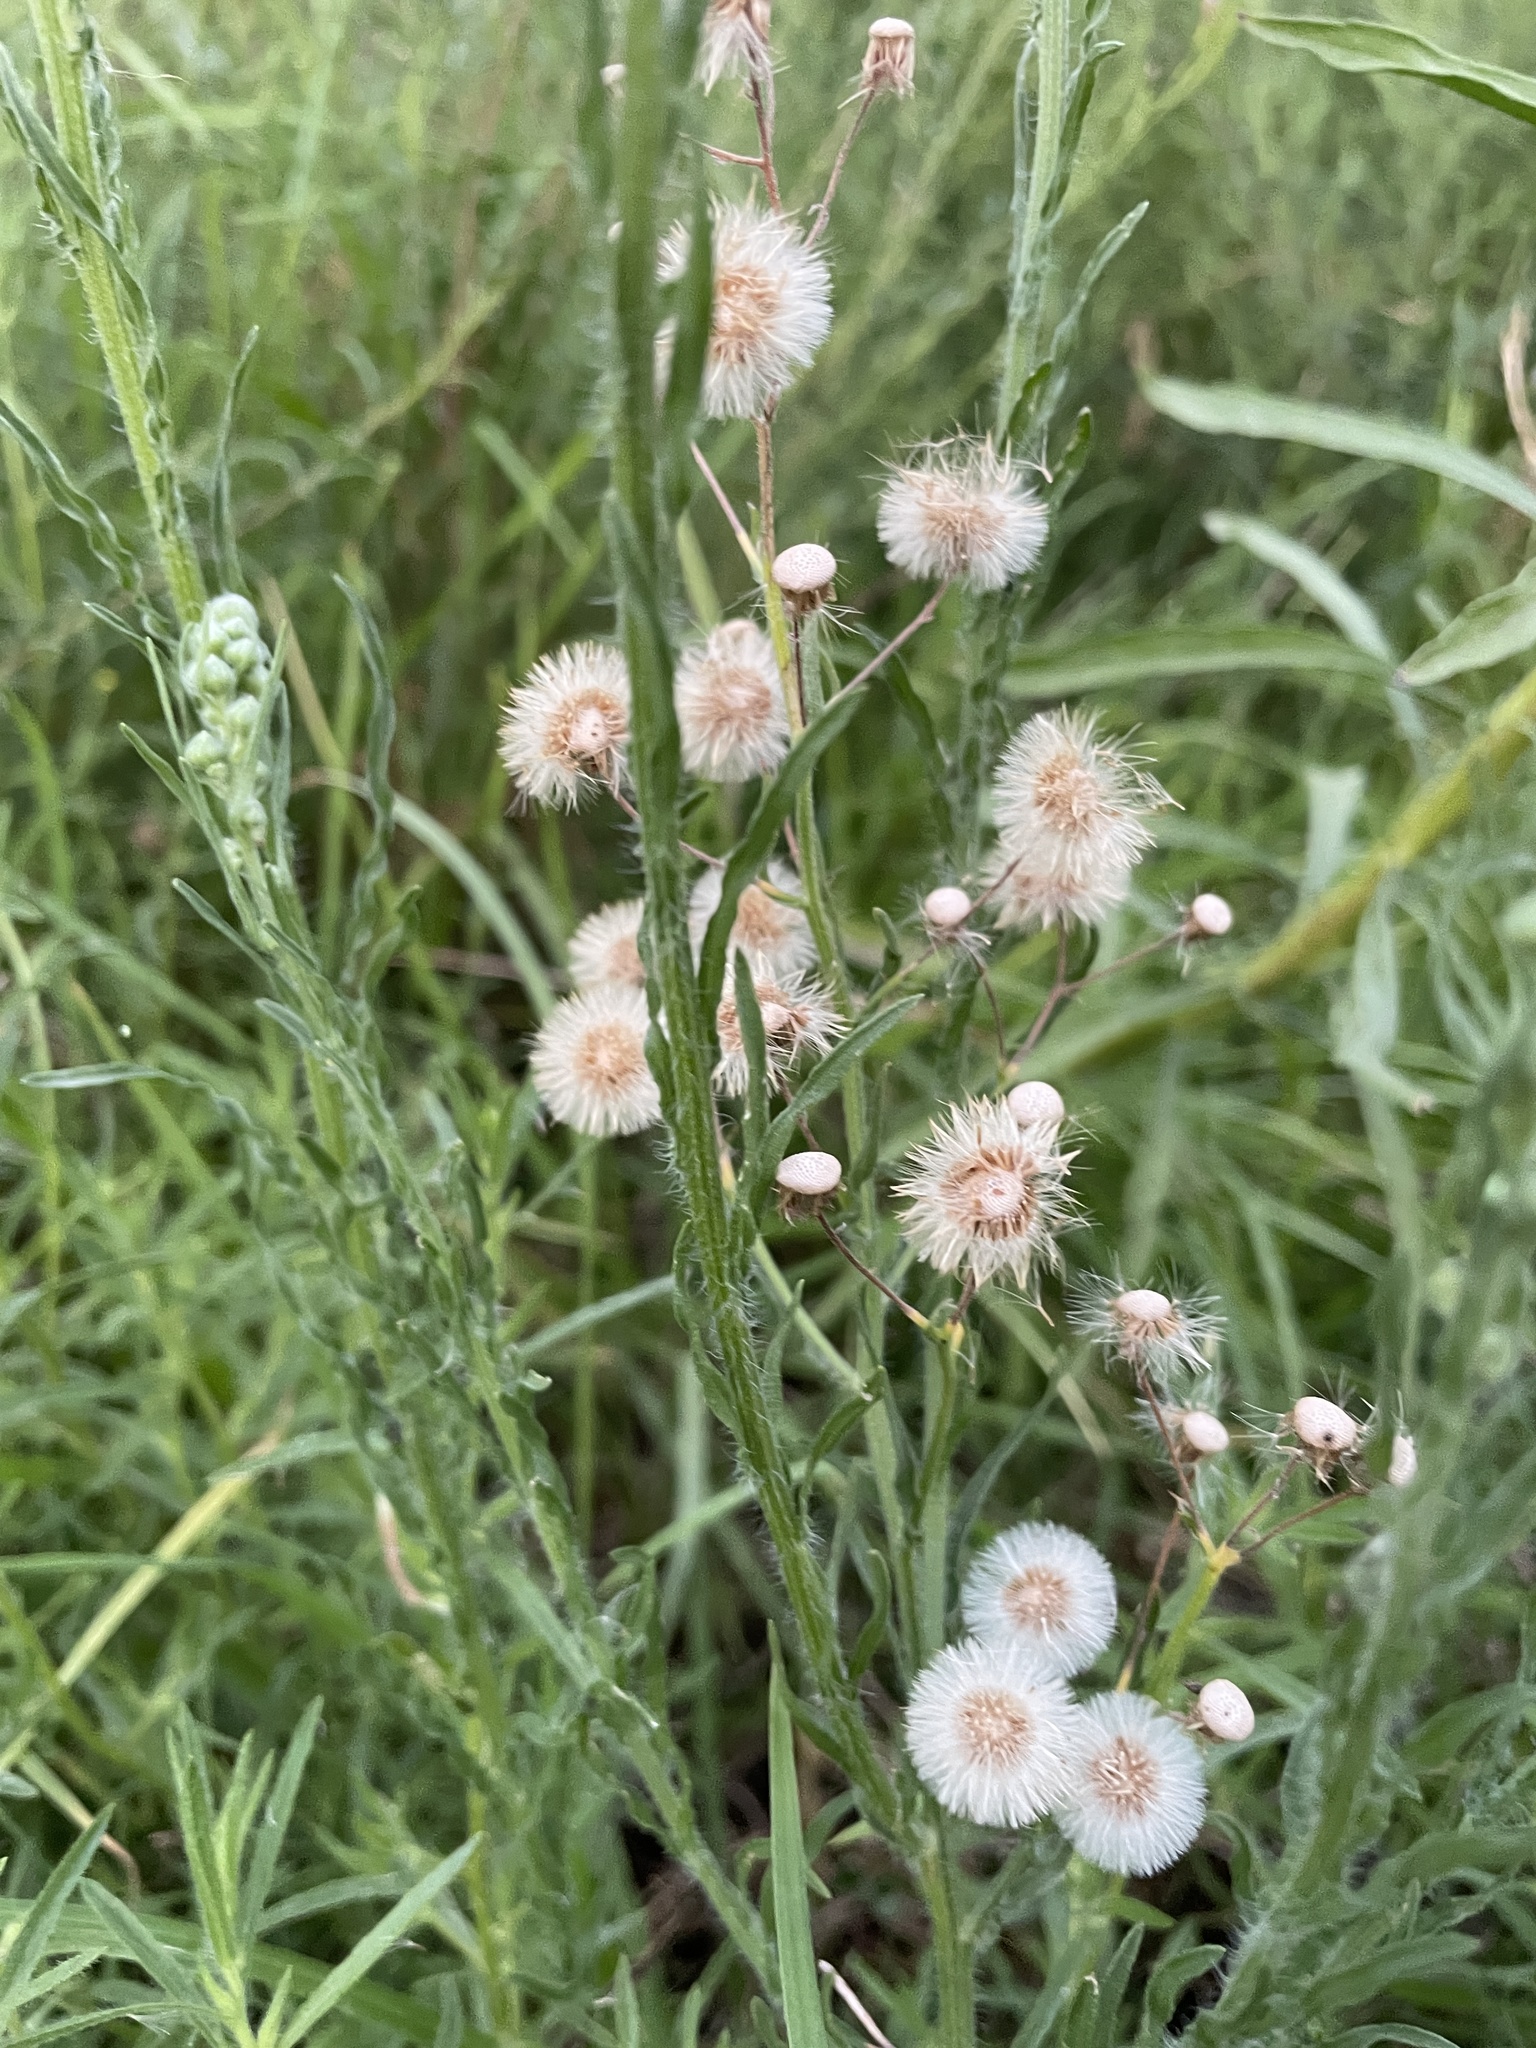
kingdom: Plantae
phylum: Tracheophyta
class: Magnoliopsida
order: Asterales
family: Asteraceae
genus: Erigeron
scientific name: Erigeron bonariensis
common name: Argentine fleabane
